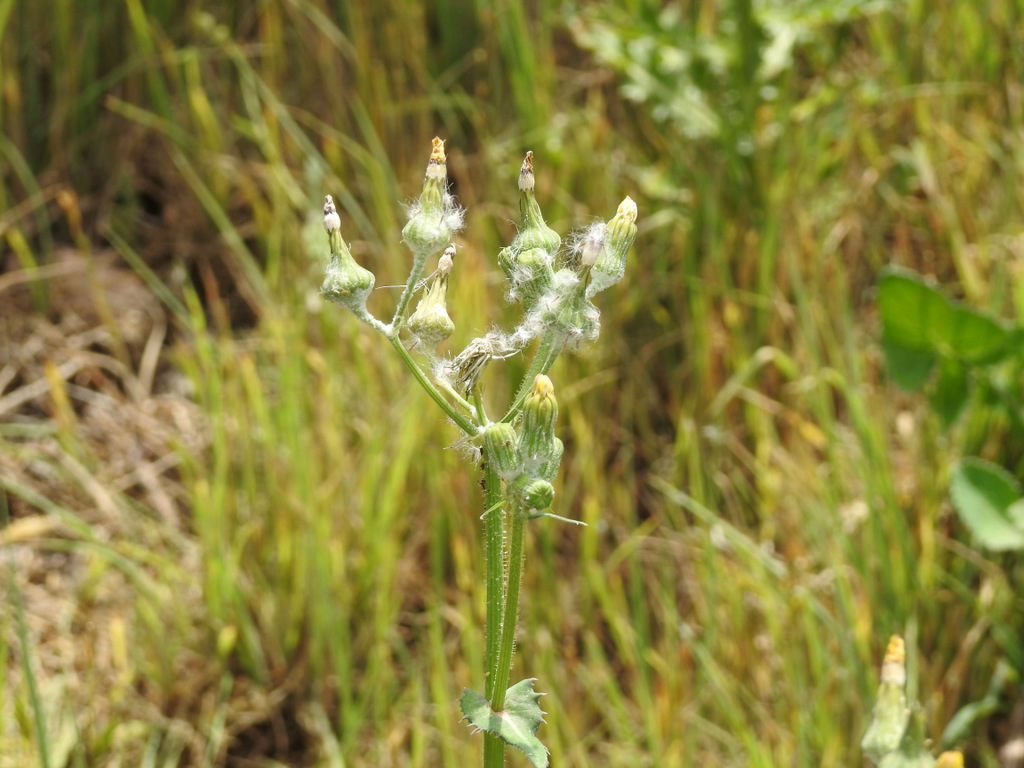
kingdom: Plantae
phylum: Tracheophyta
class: Magnoliopsida
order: Asterales
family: Asteraceae
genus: Sonchus
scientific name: Sonchus oleraceus
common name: Common sowthistle
